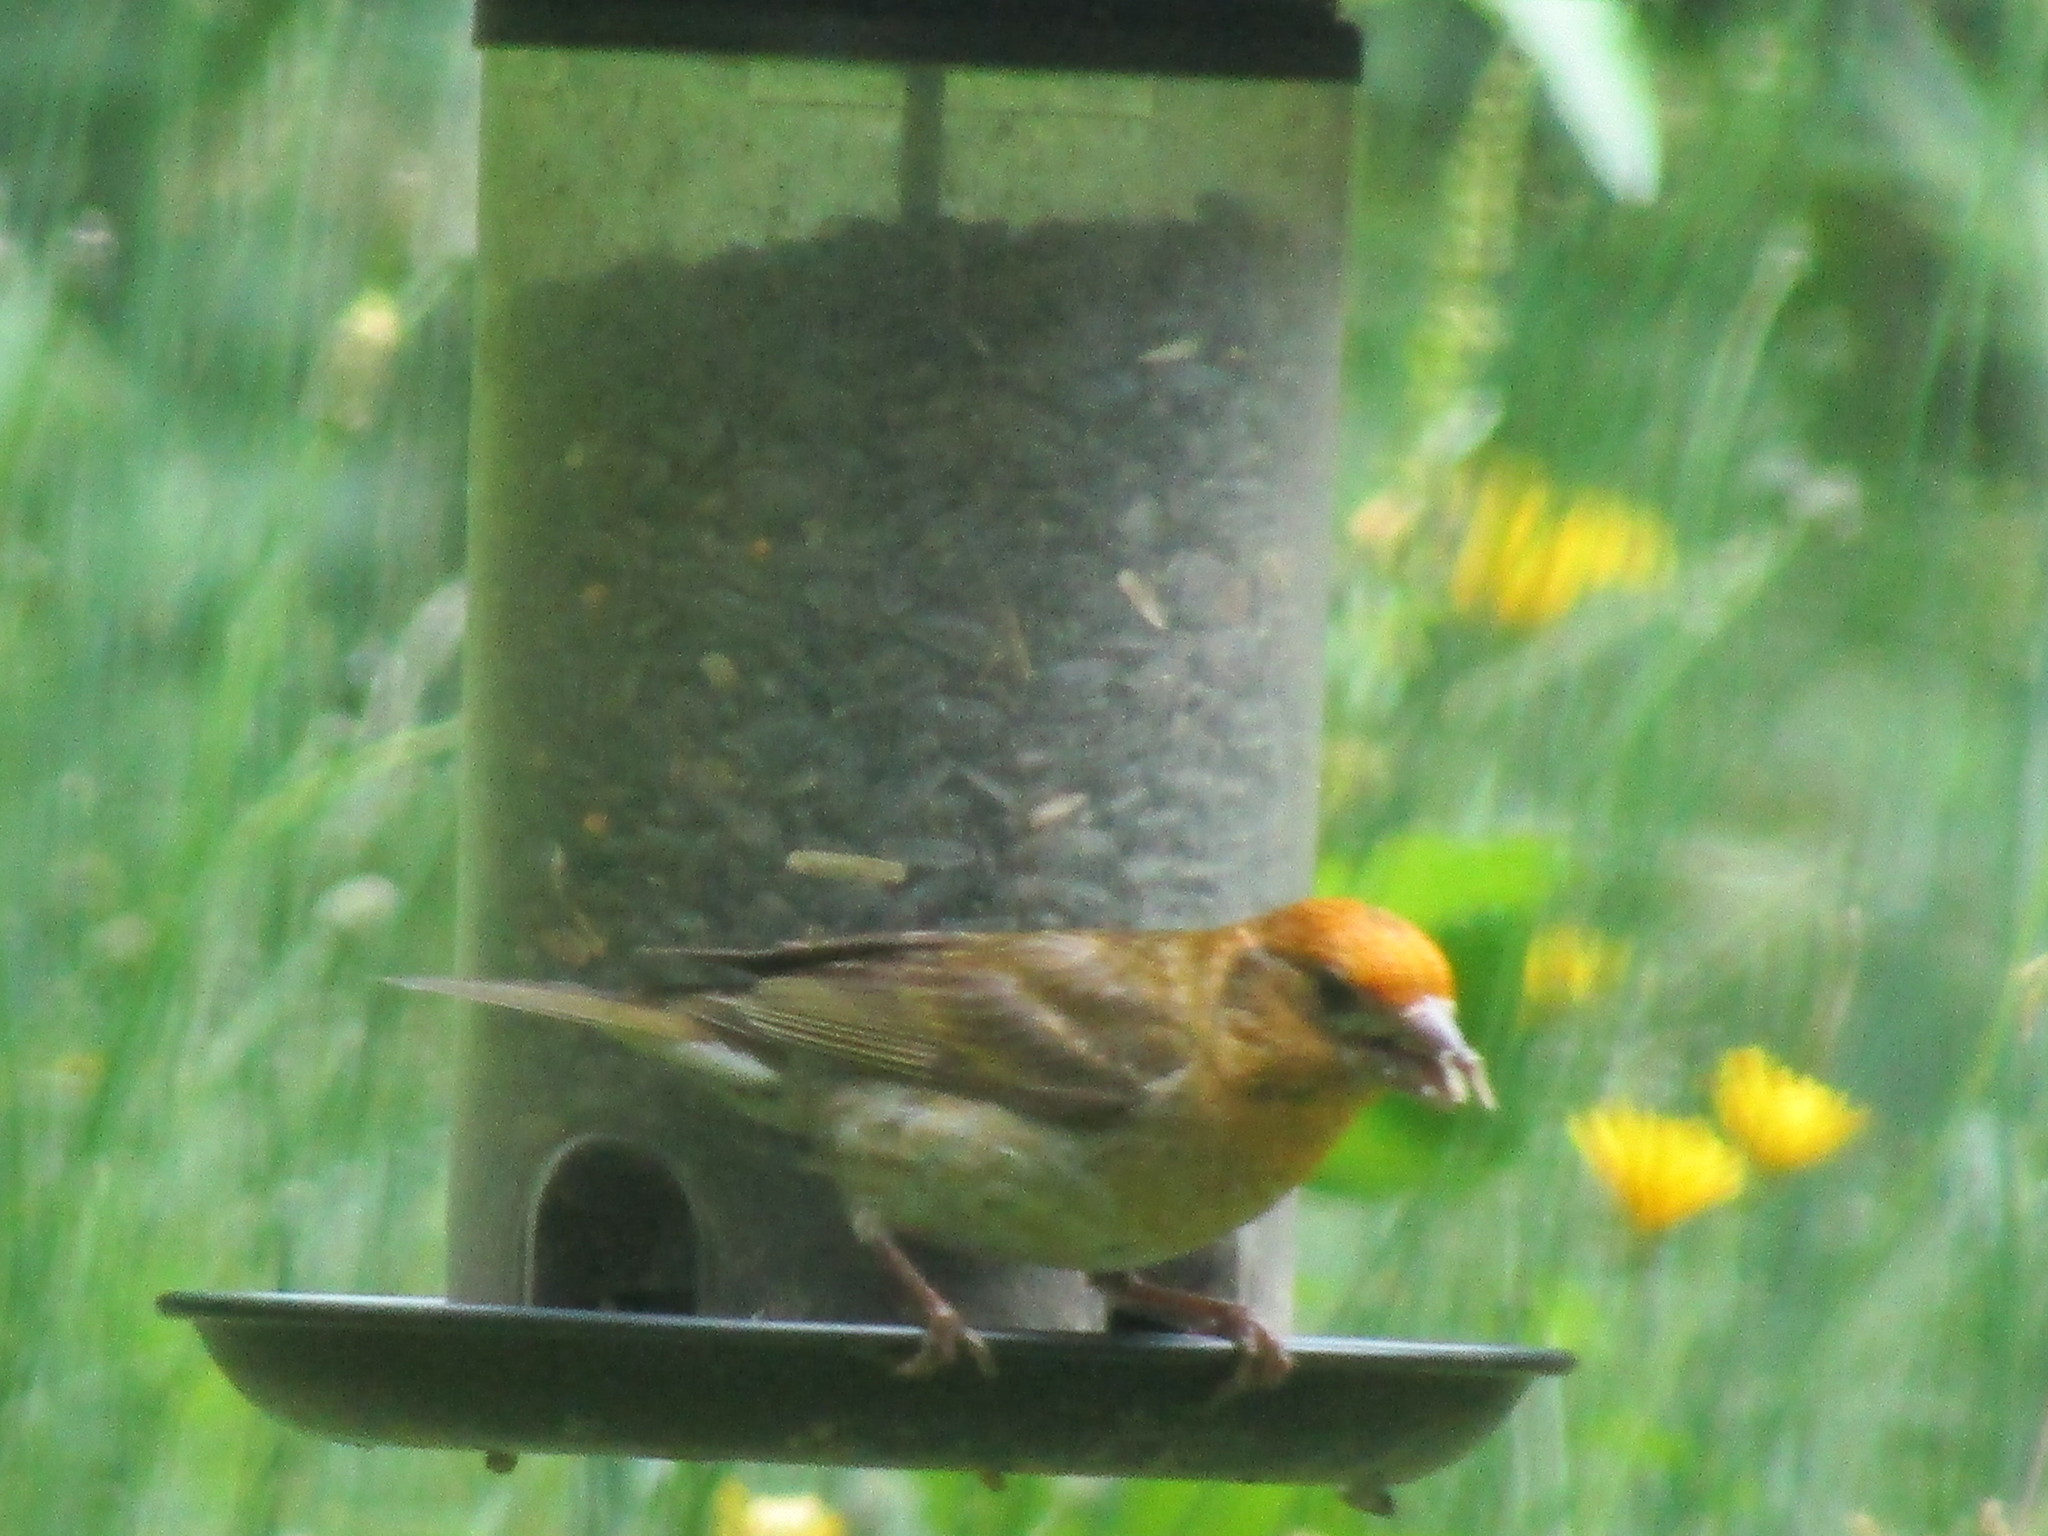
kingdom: Animalia
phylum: Chordata
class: Aves
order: Passeriformes
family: Fringillidae
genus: Haemorhous
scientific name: Haemorhous purpureus
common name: Purple finch
